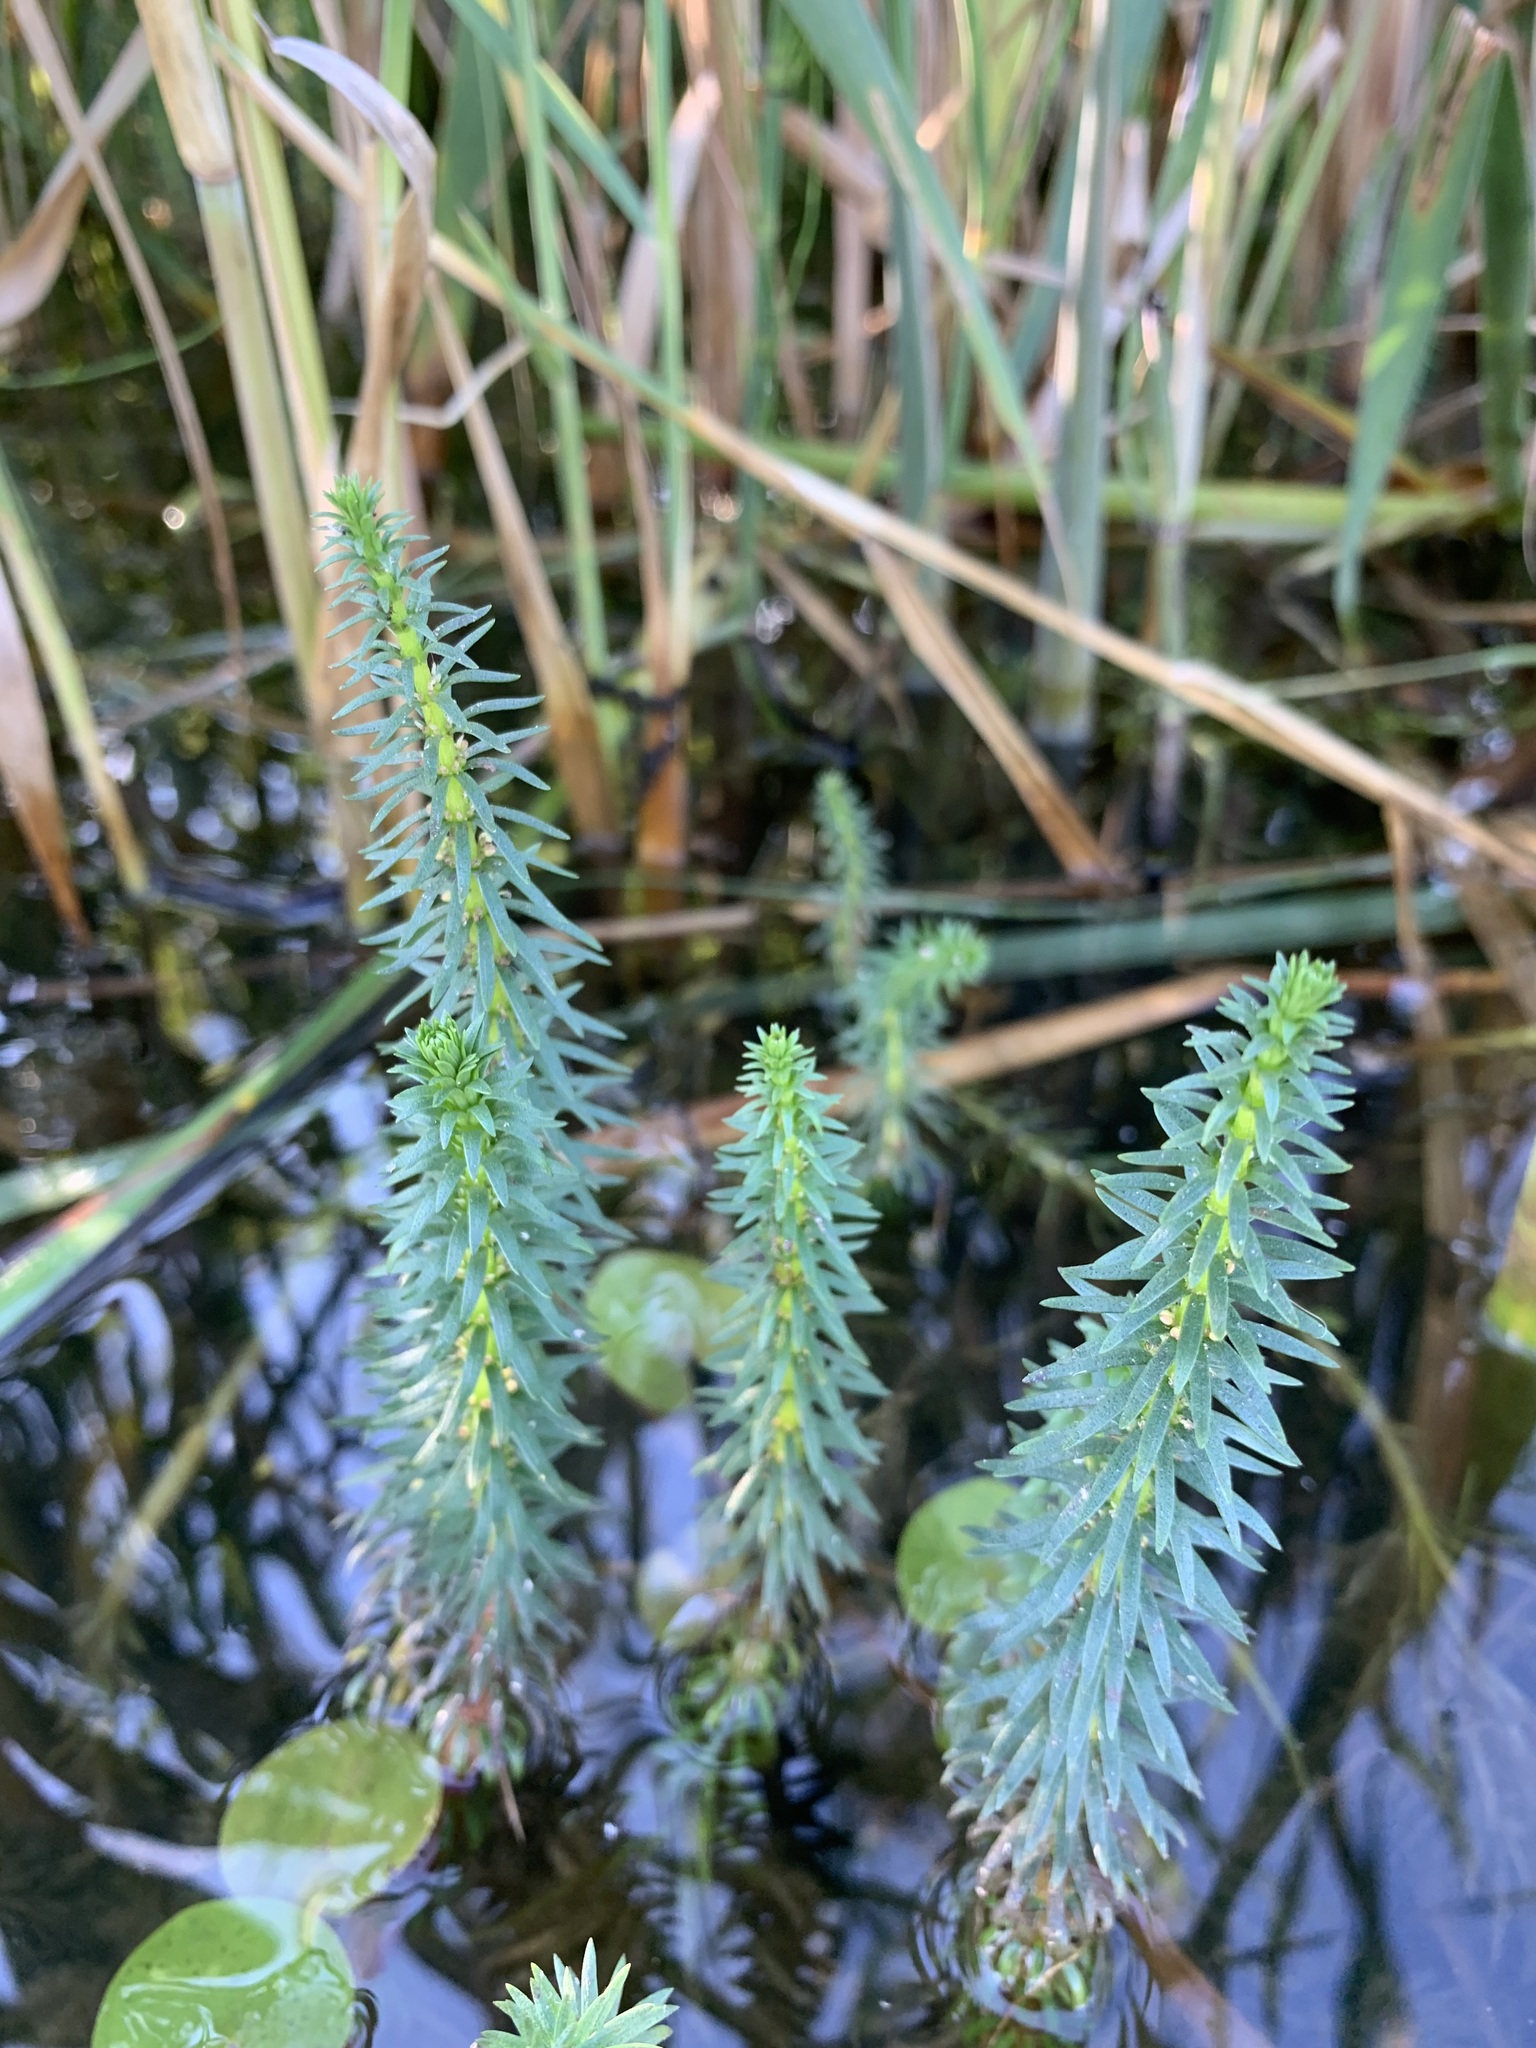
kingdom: Plantae
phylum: Tracheophyta
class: Magnoliopsida
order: Lamiales
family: Plantaginaceae
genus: Hippuris
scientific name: Hippuris vulgaris
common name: Mare's-tail
